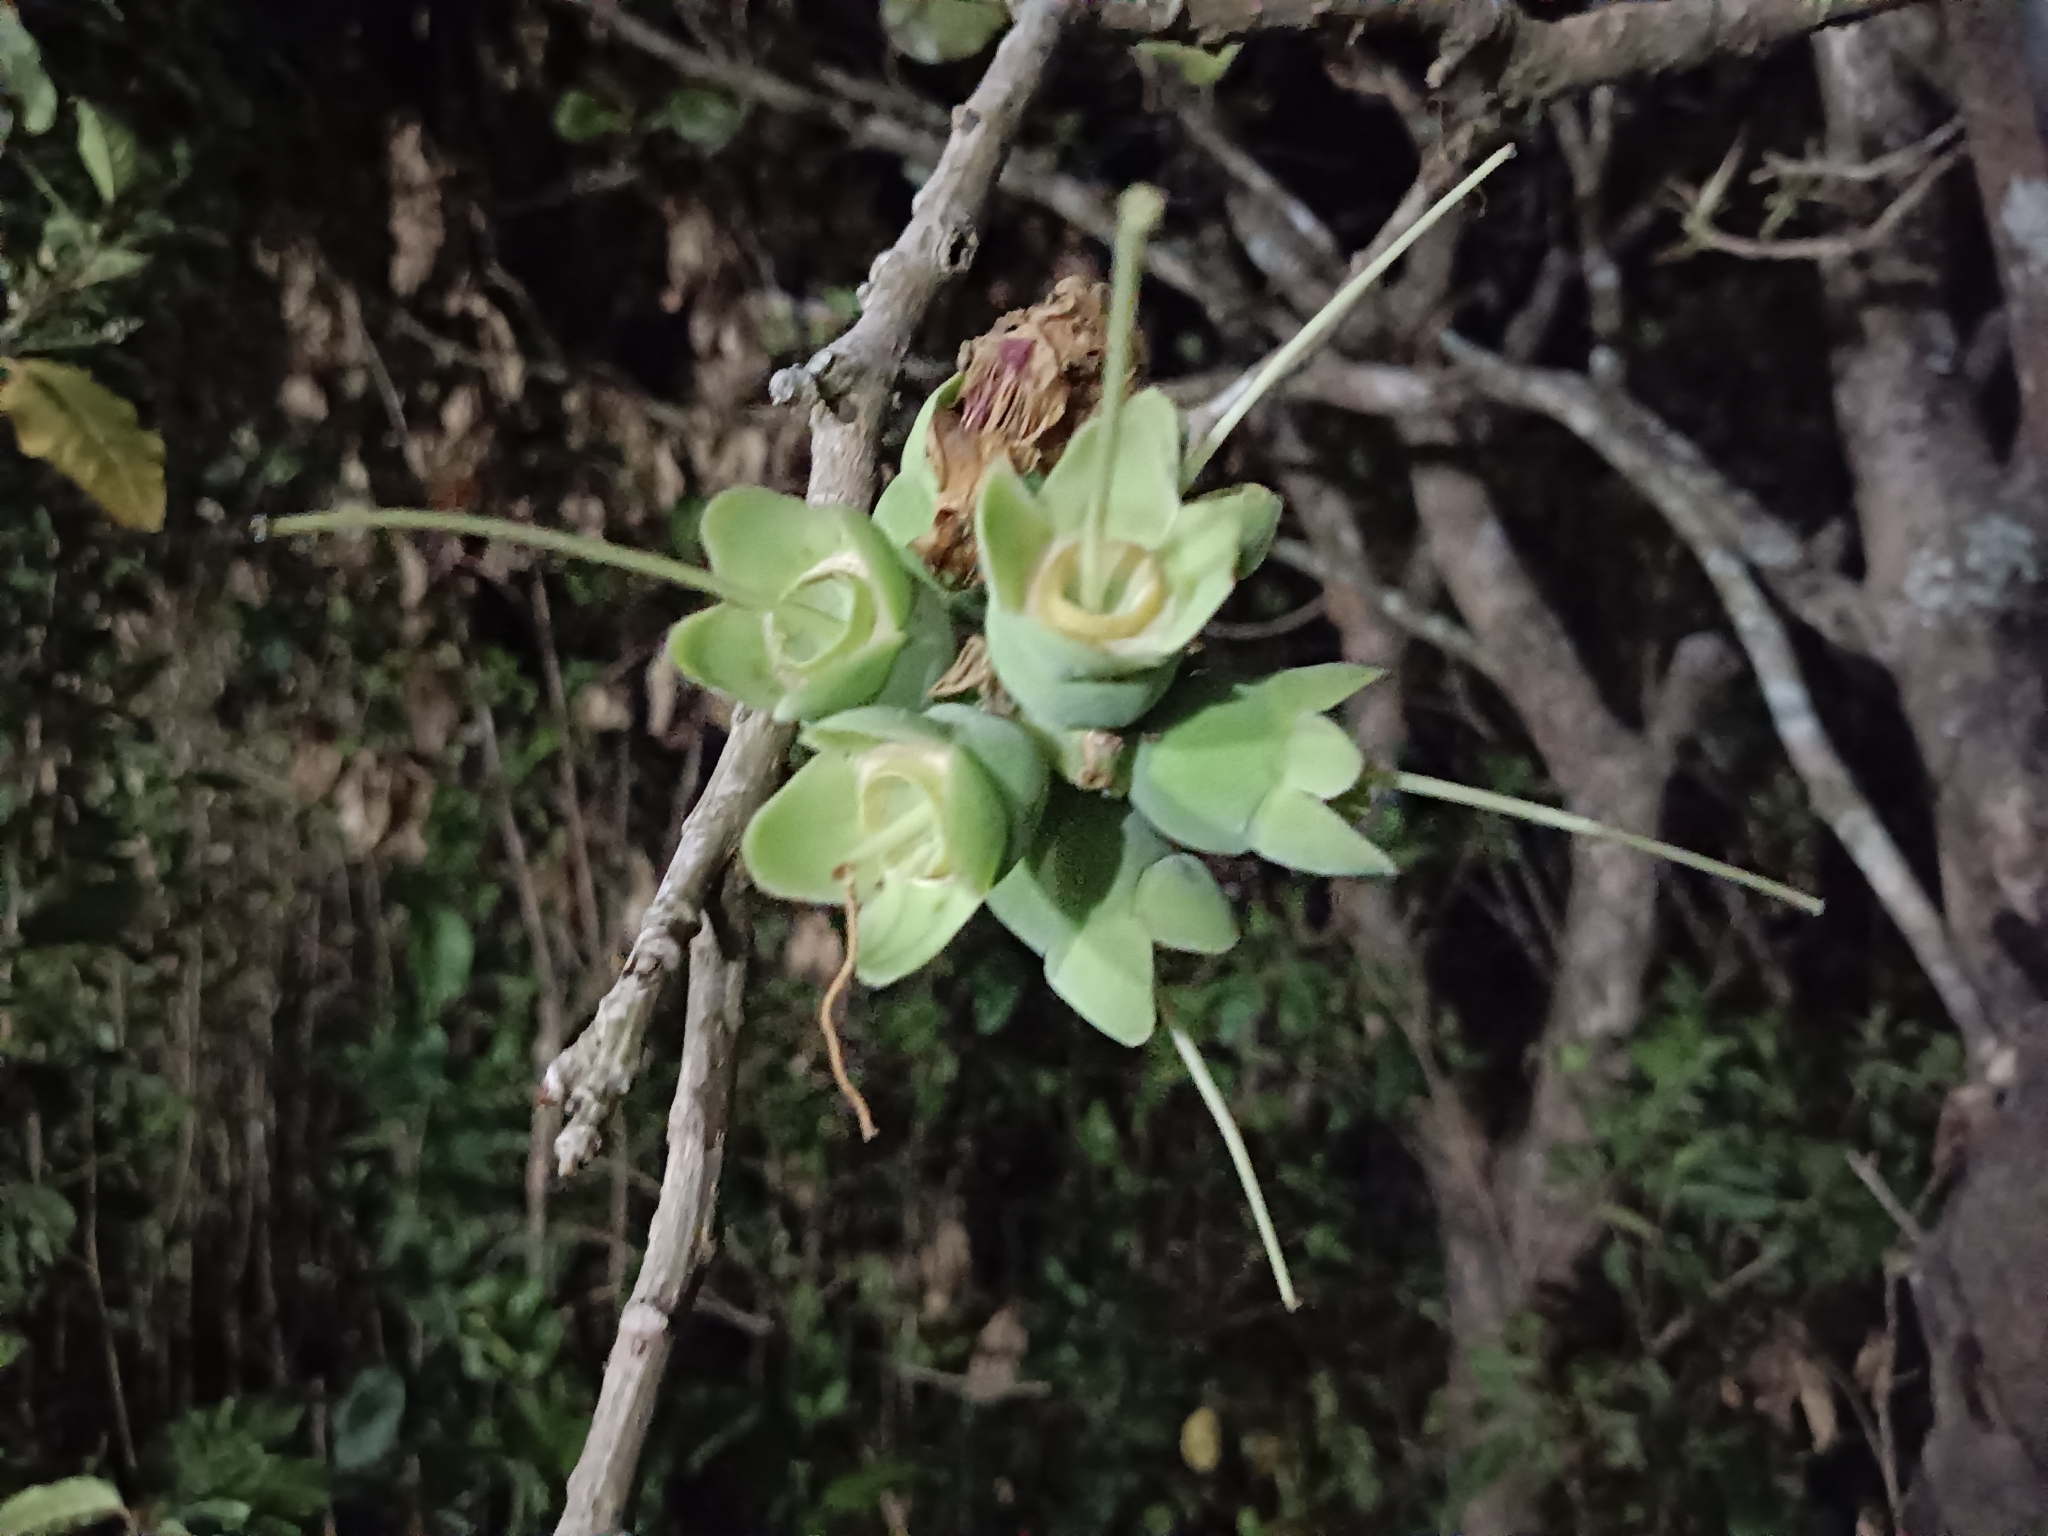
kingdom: Plantae
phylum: Tracheophyta
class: Magnoliopsida
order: Ericales
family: Lecythidaceae
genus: Careya
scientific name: Careya arborea
